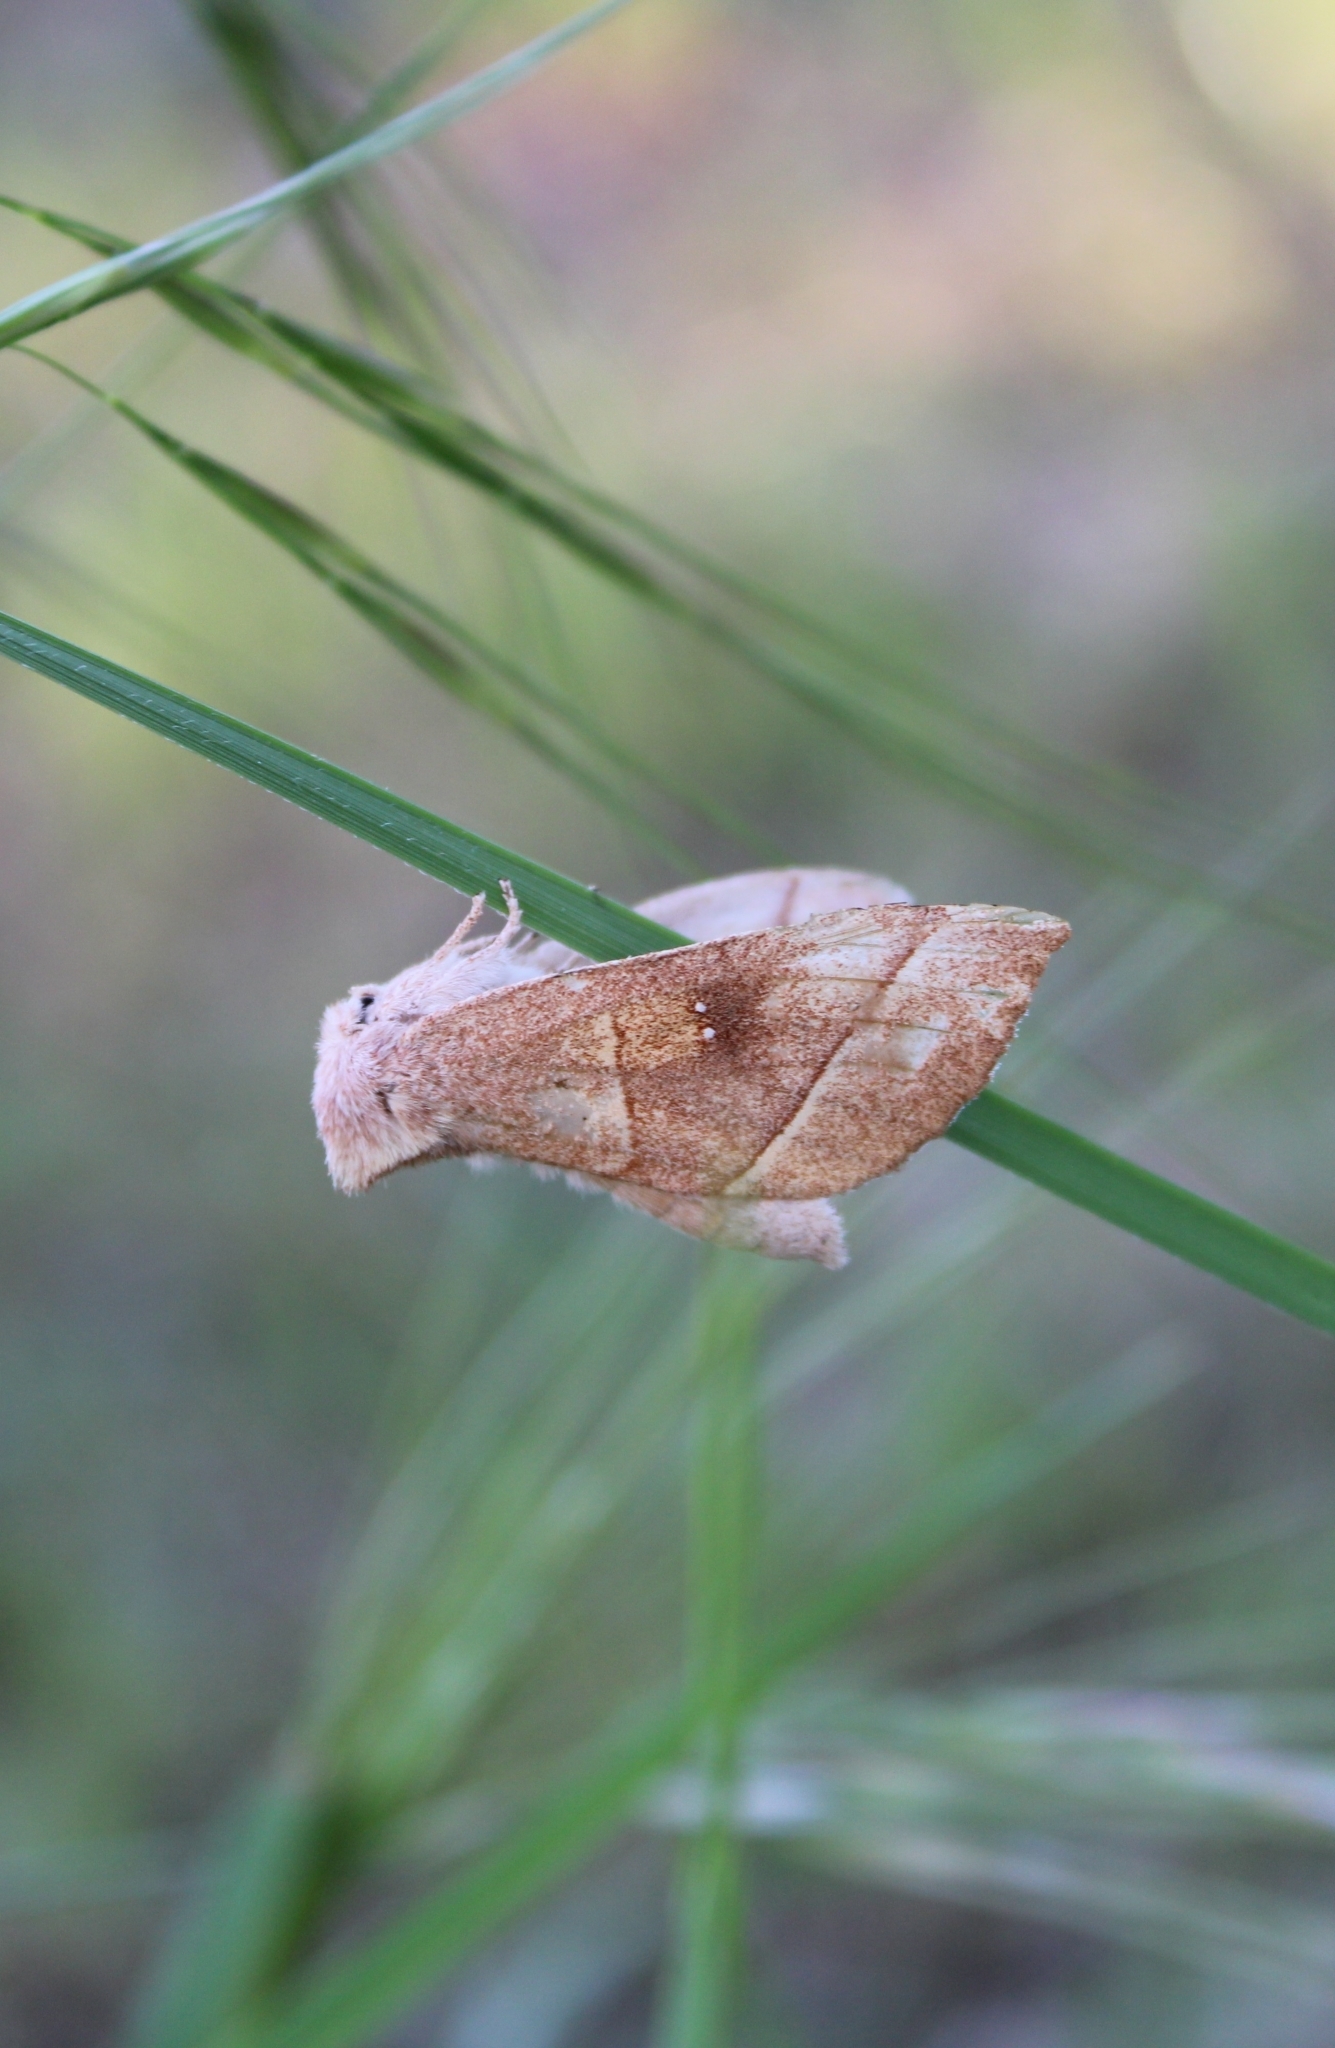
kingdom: Animalia
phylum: Arthropoda
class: Insecta
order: Lepidoptera
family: Notodontidae
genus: Nadata
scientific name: Nadata gibbosa
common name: White-dotted prominent
